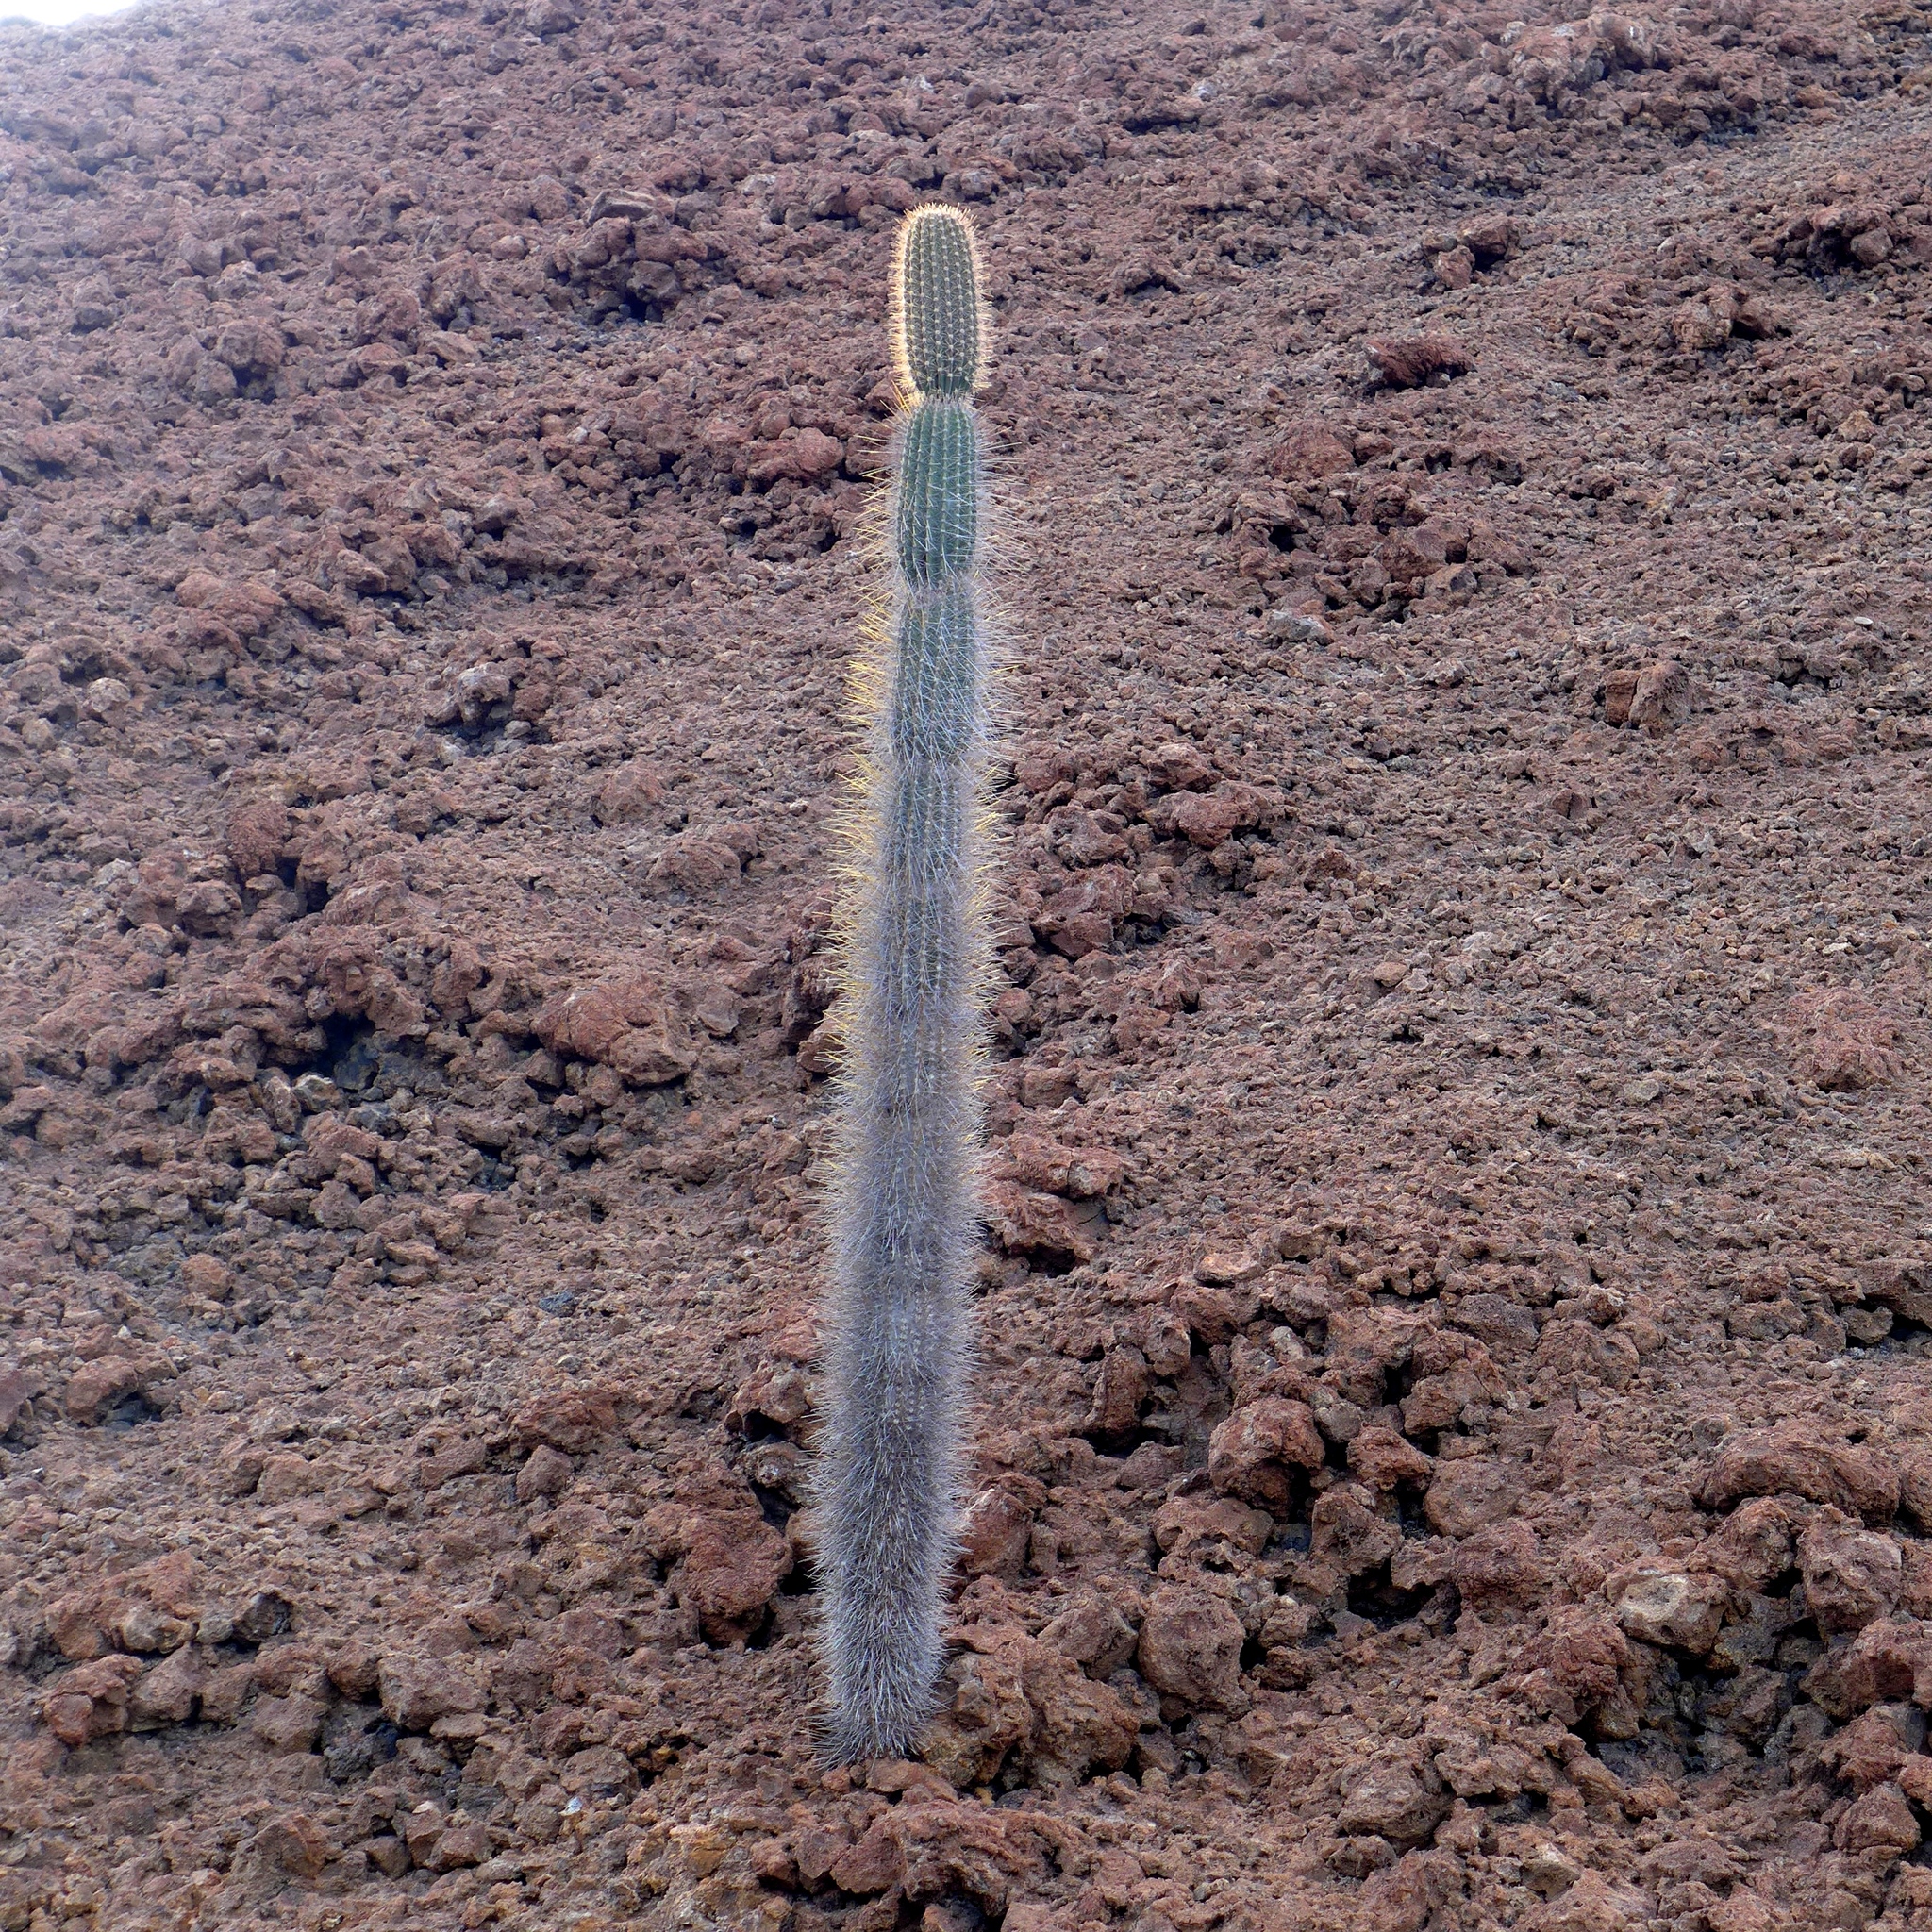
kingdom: Plantae
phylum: Tracheophyta
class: Magnoliopsida
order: Caryophyllales
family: Cactaceae
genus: Jasminocereus
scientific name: Jasminocereus thouarsii
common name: Candelabra cactus
